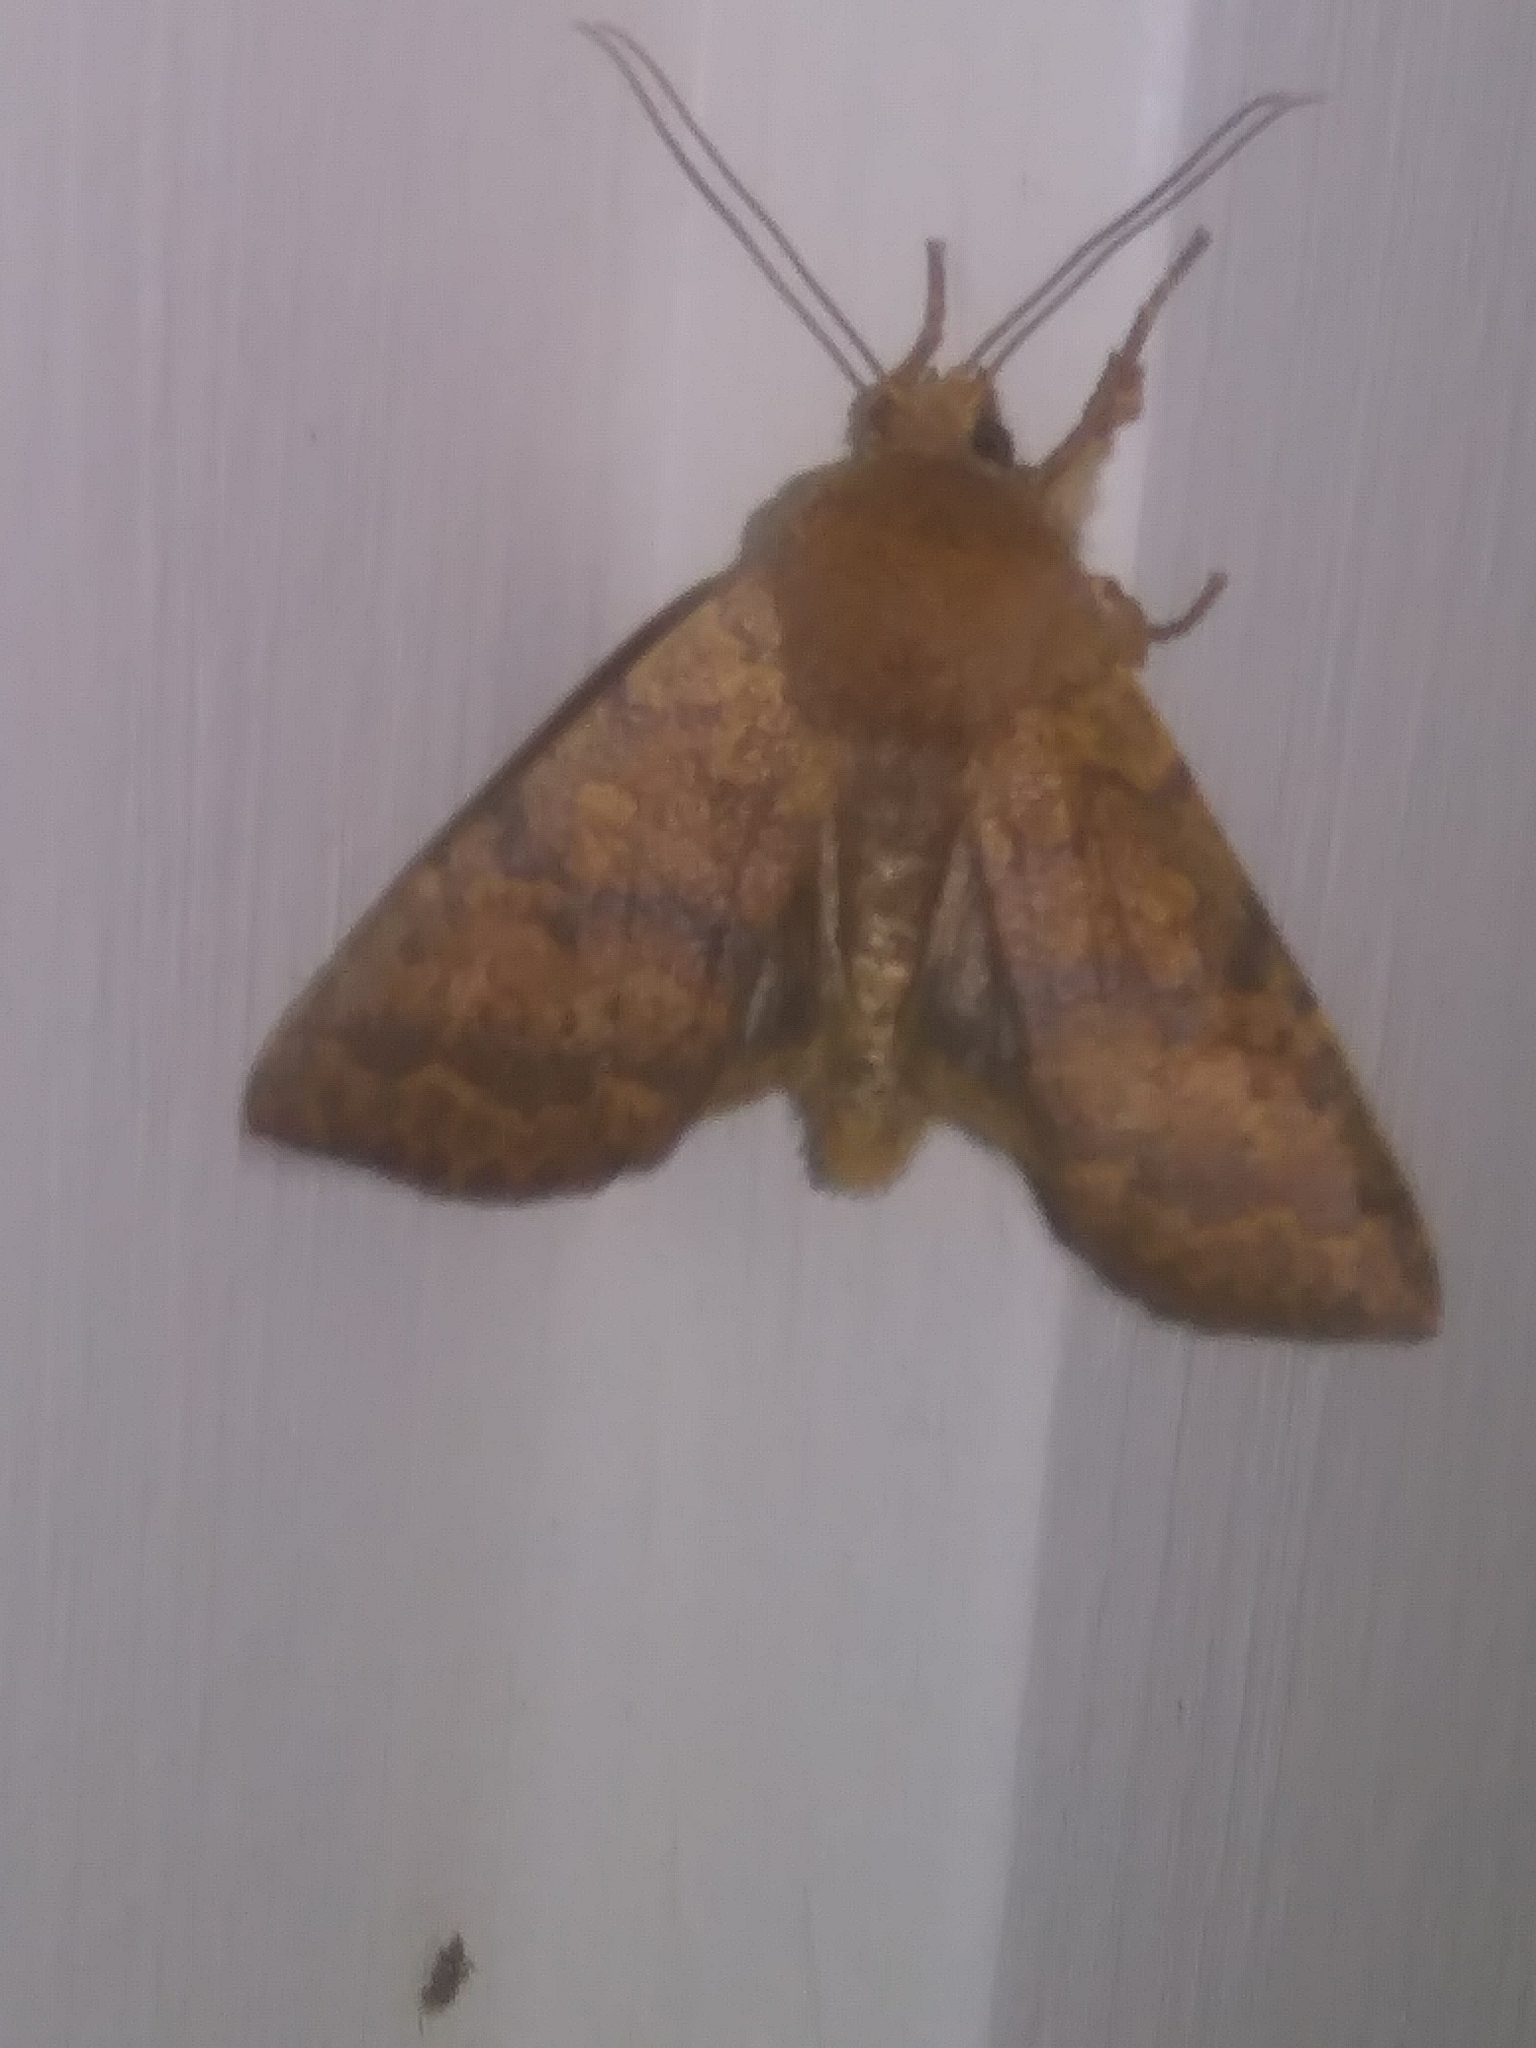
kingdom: Animalia
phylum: Arthropoda
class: Insecta
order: Lepidoptera
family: Noctuidae
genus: Agrochola
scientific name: Agrochola bicolorago
